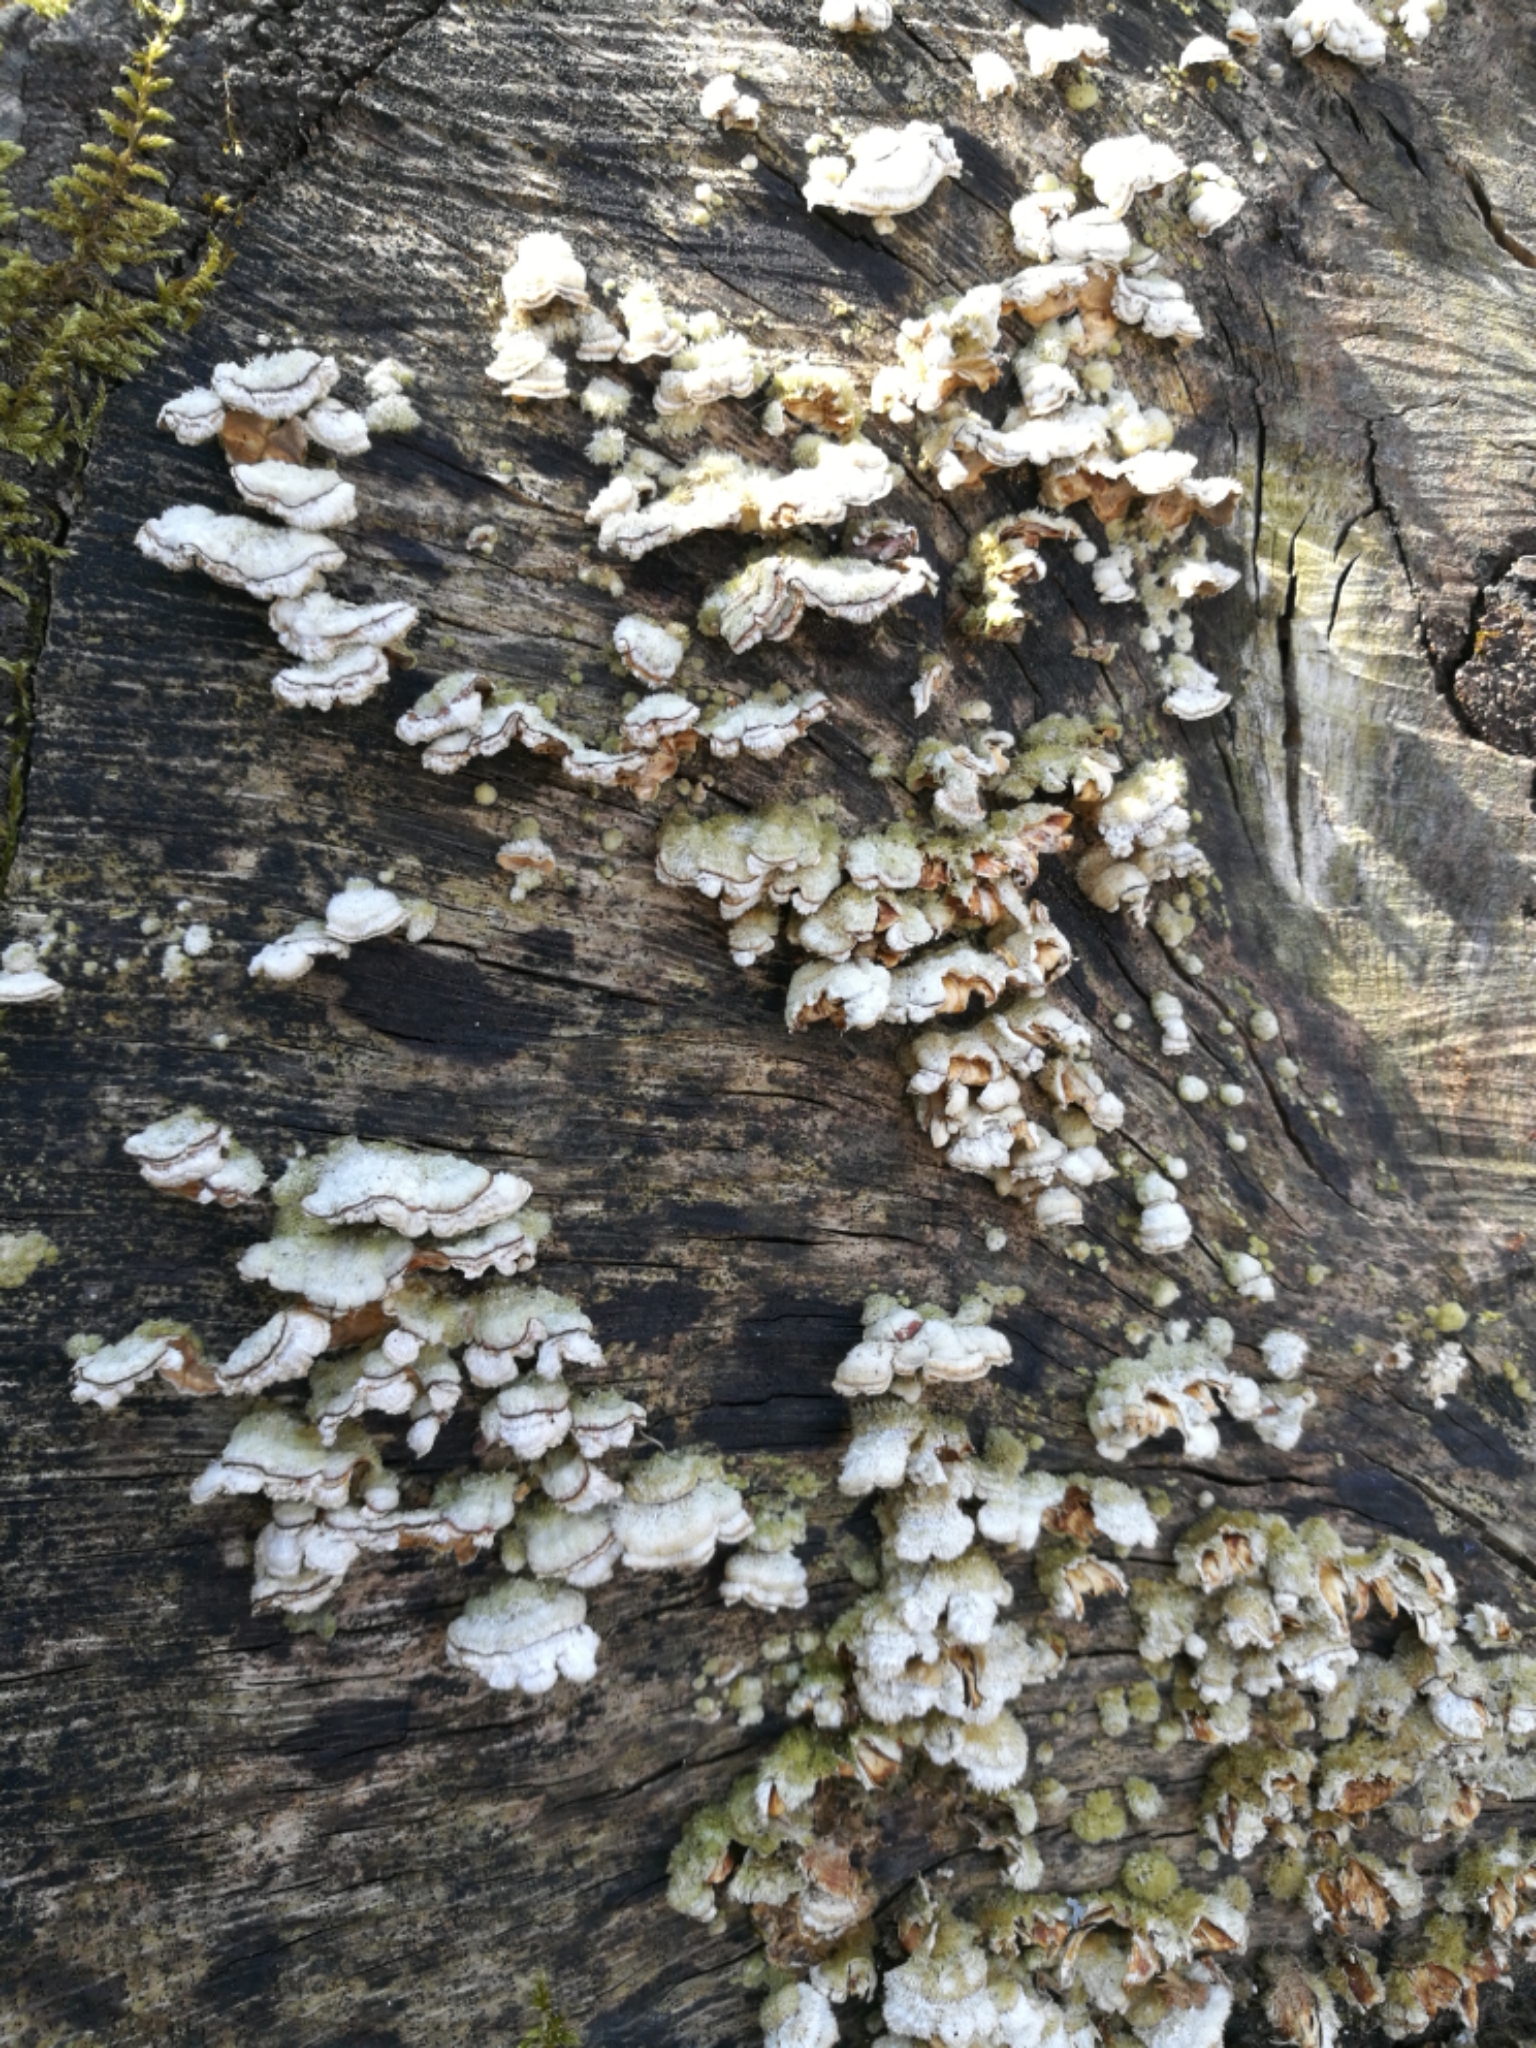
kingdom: Fungi
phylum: Basidiomycota
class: Agaricomycetes
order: Agaricales
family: Schizophyllaceae
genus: Schizophyllum
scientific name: Schizophyllum commune
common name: Common porecrust
